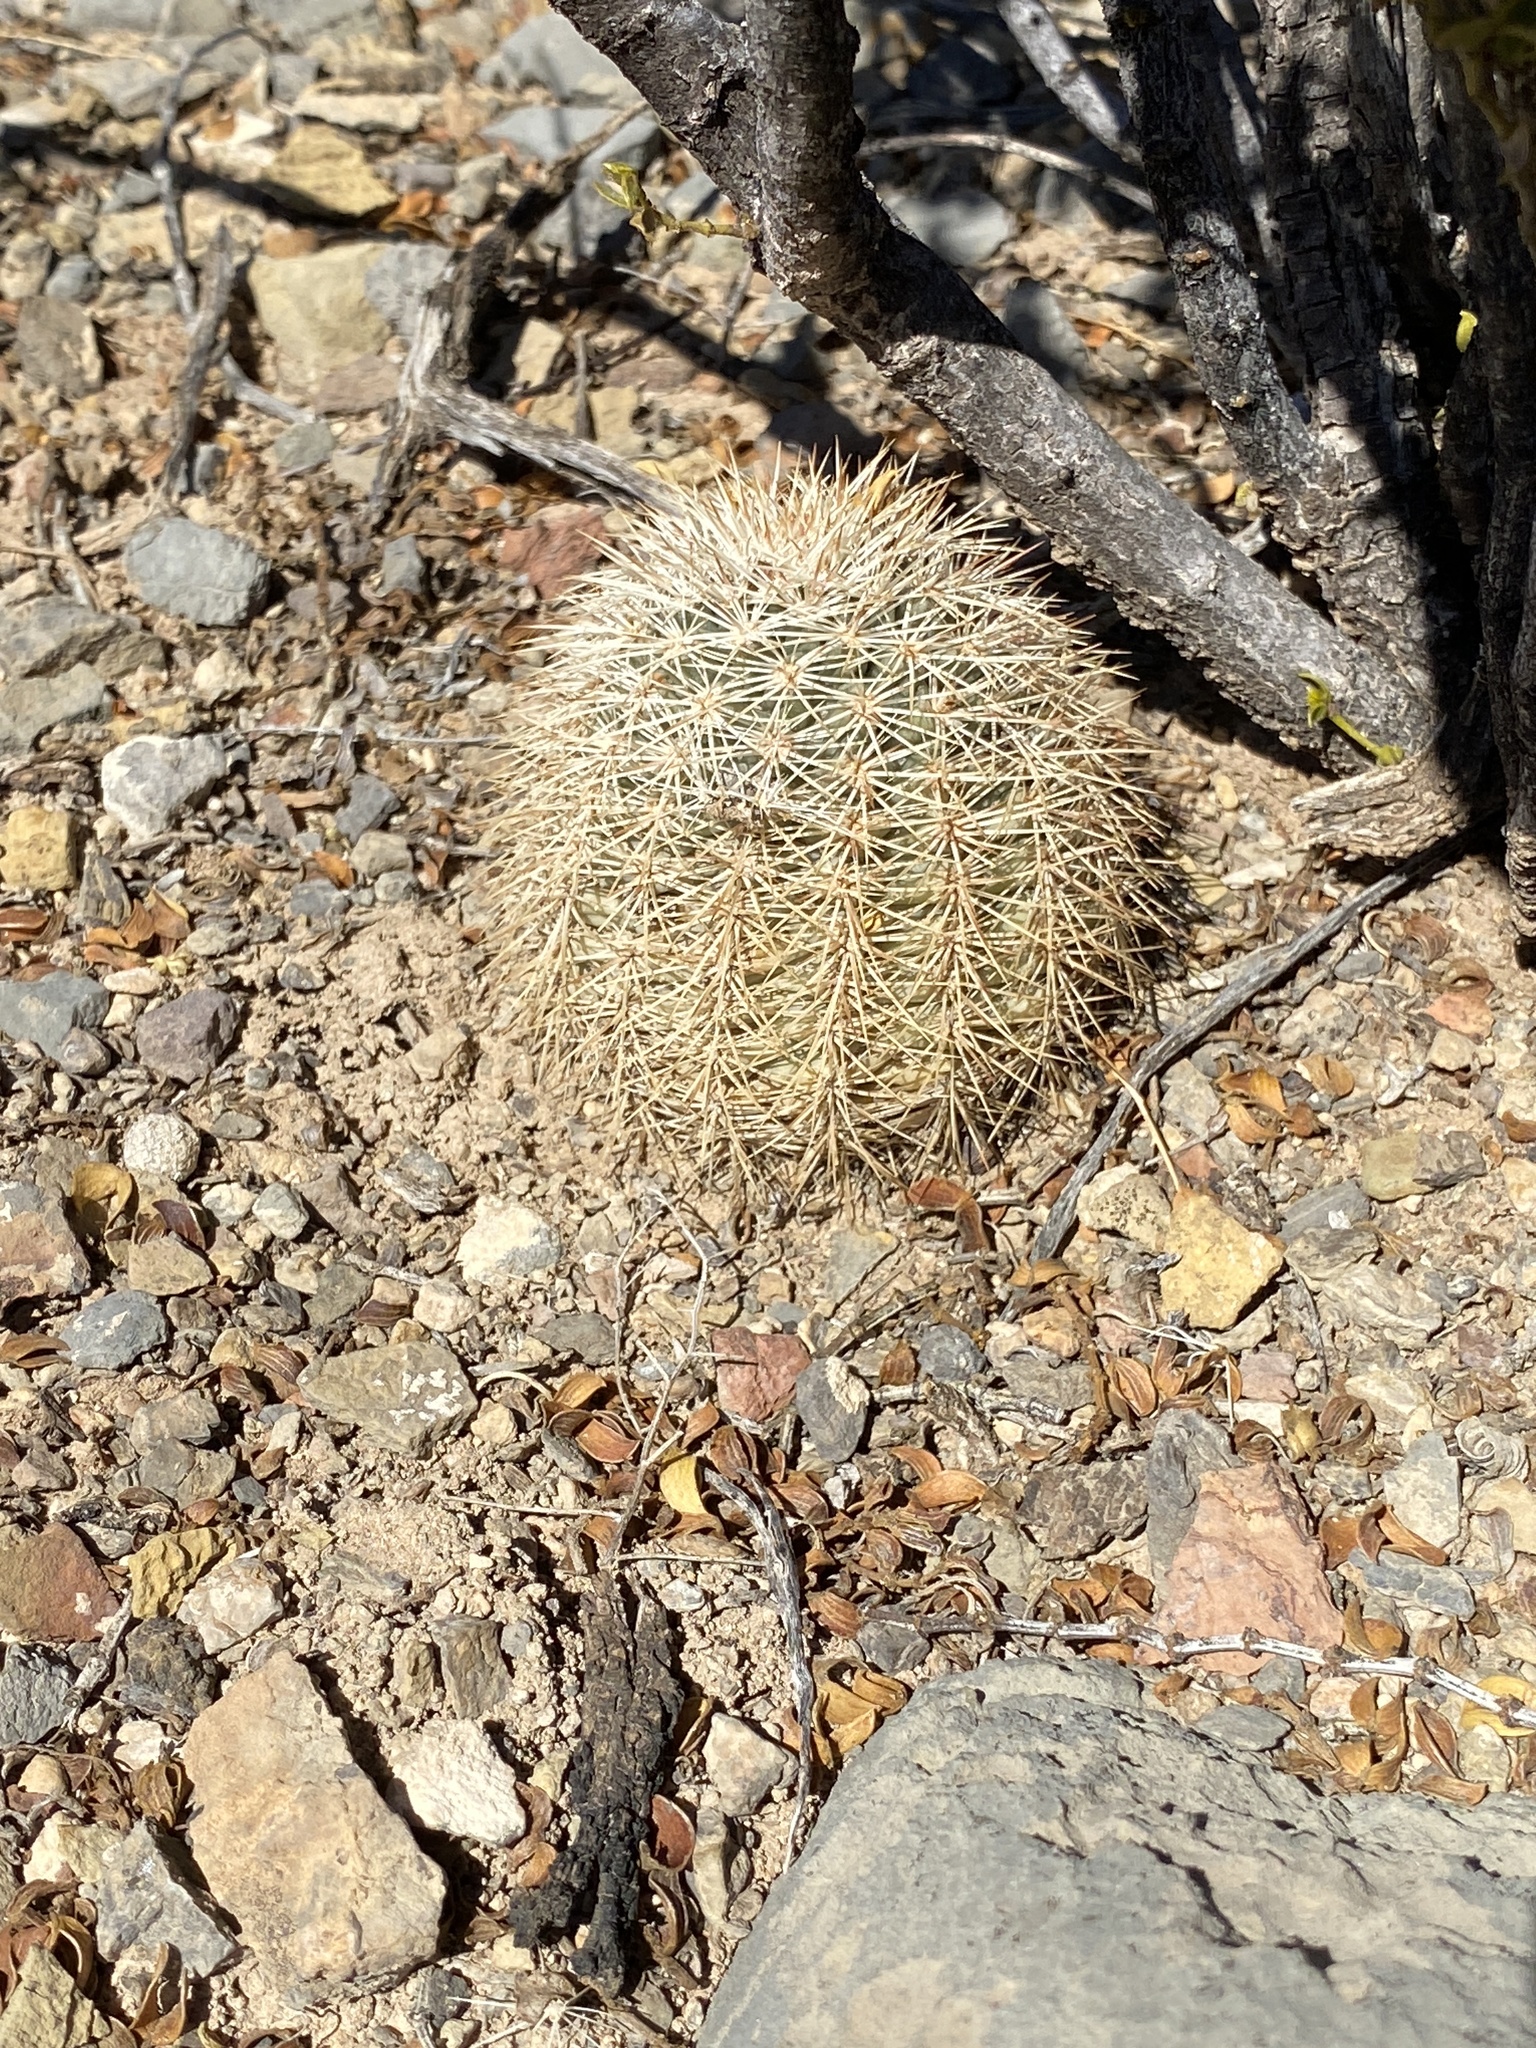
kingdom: Plantae
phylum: Tracheophyta
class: Magnoliopsida
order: Caryophyllales
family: Cactaceae
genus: Echinocereus
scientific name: Echinocereus dasyacanthus
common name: Spiny hedgehog cactus
